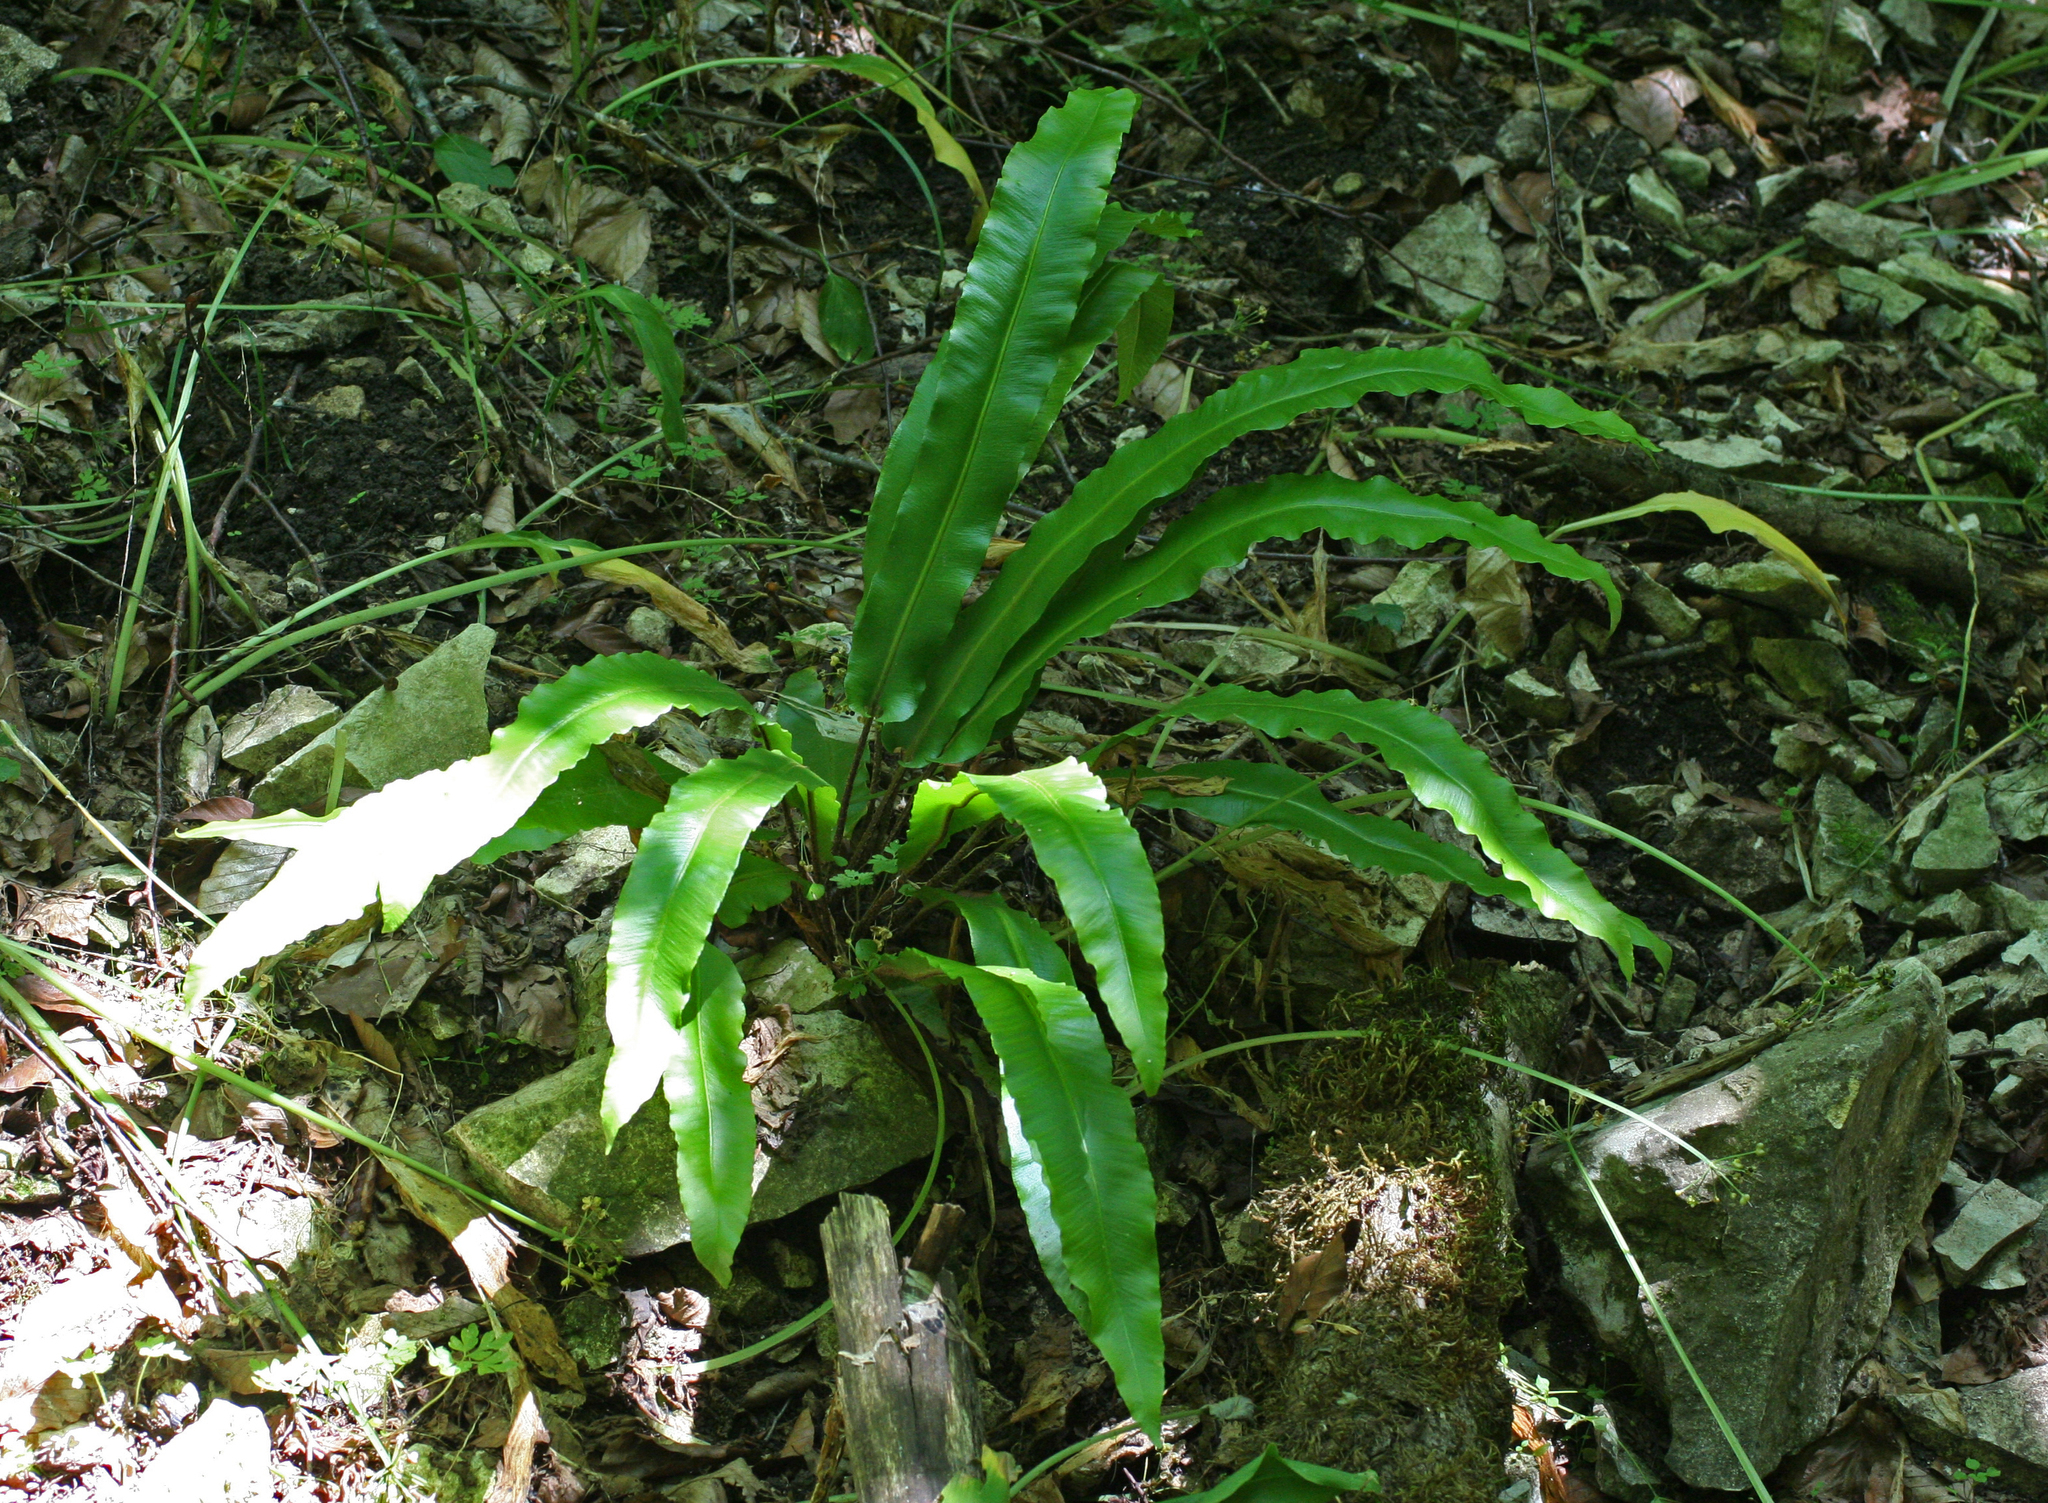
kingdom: Plantae
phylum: Tracheophyta
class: Polypodiopsida
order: Polypodiales
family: Aspleniaceae
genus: Asplenium
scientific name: Asplenium scolopendrium
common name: Hart's-tongue fern
